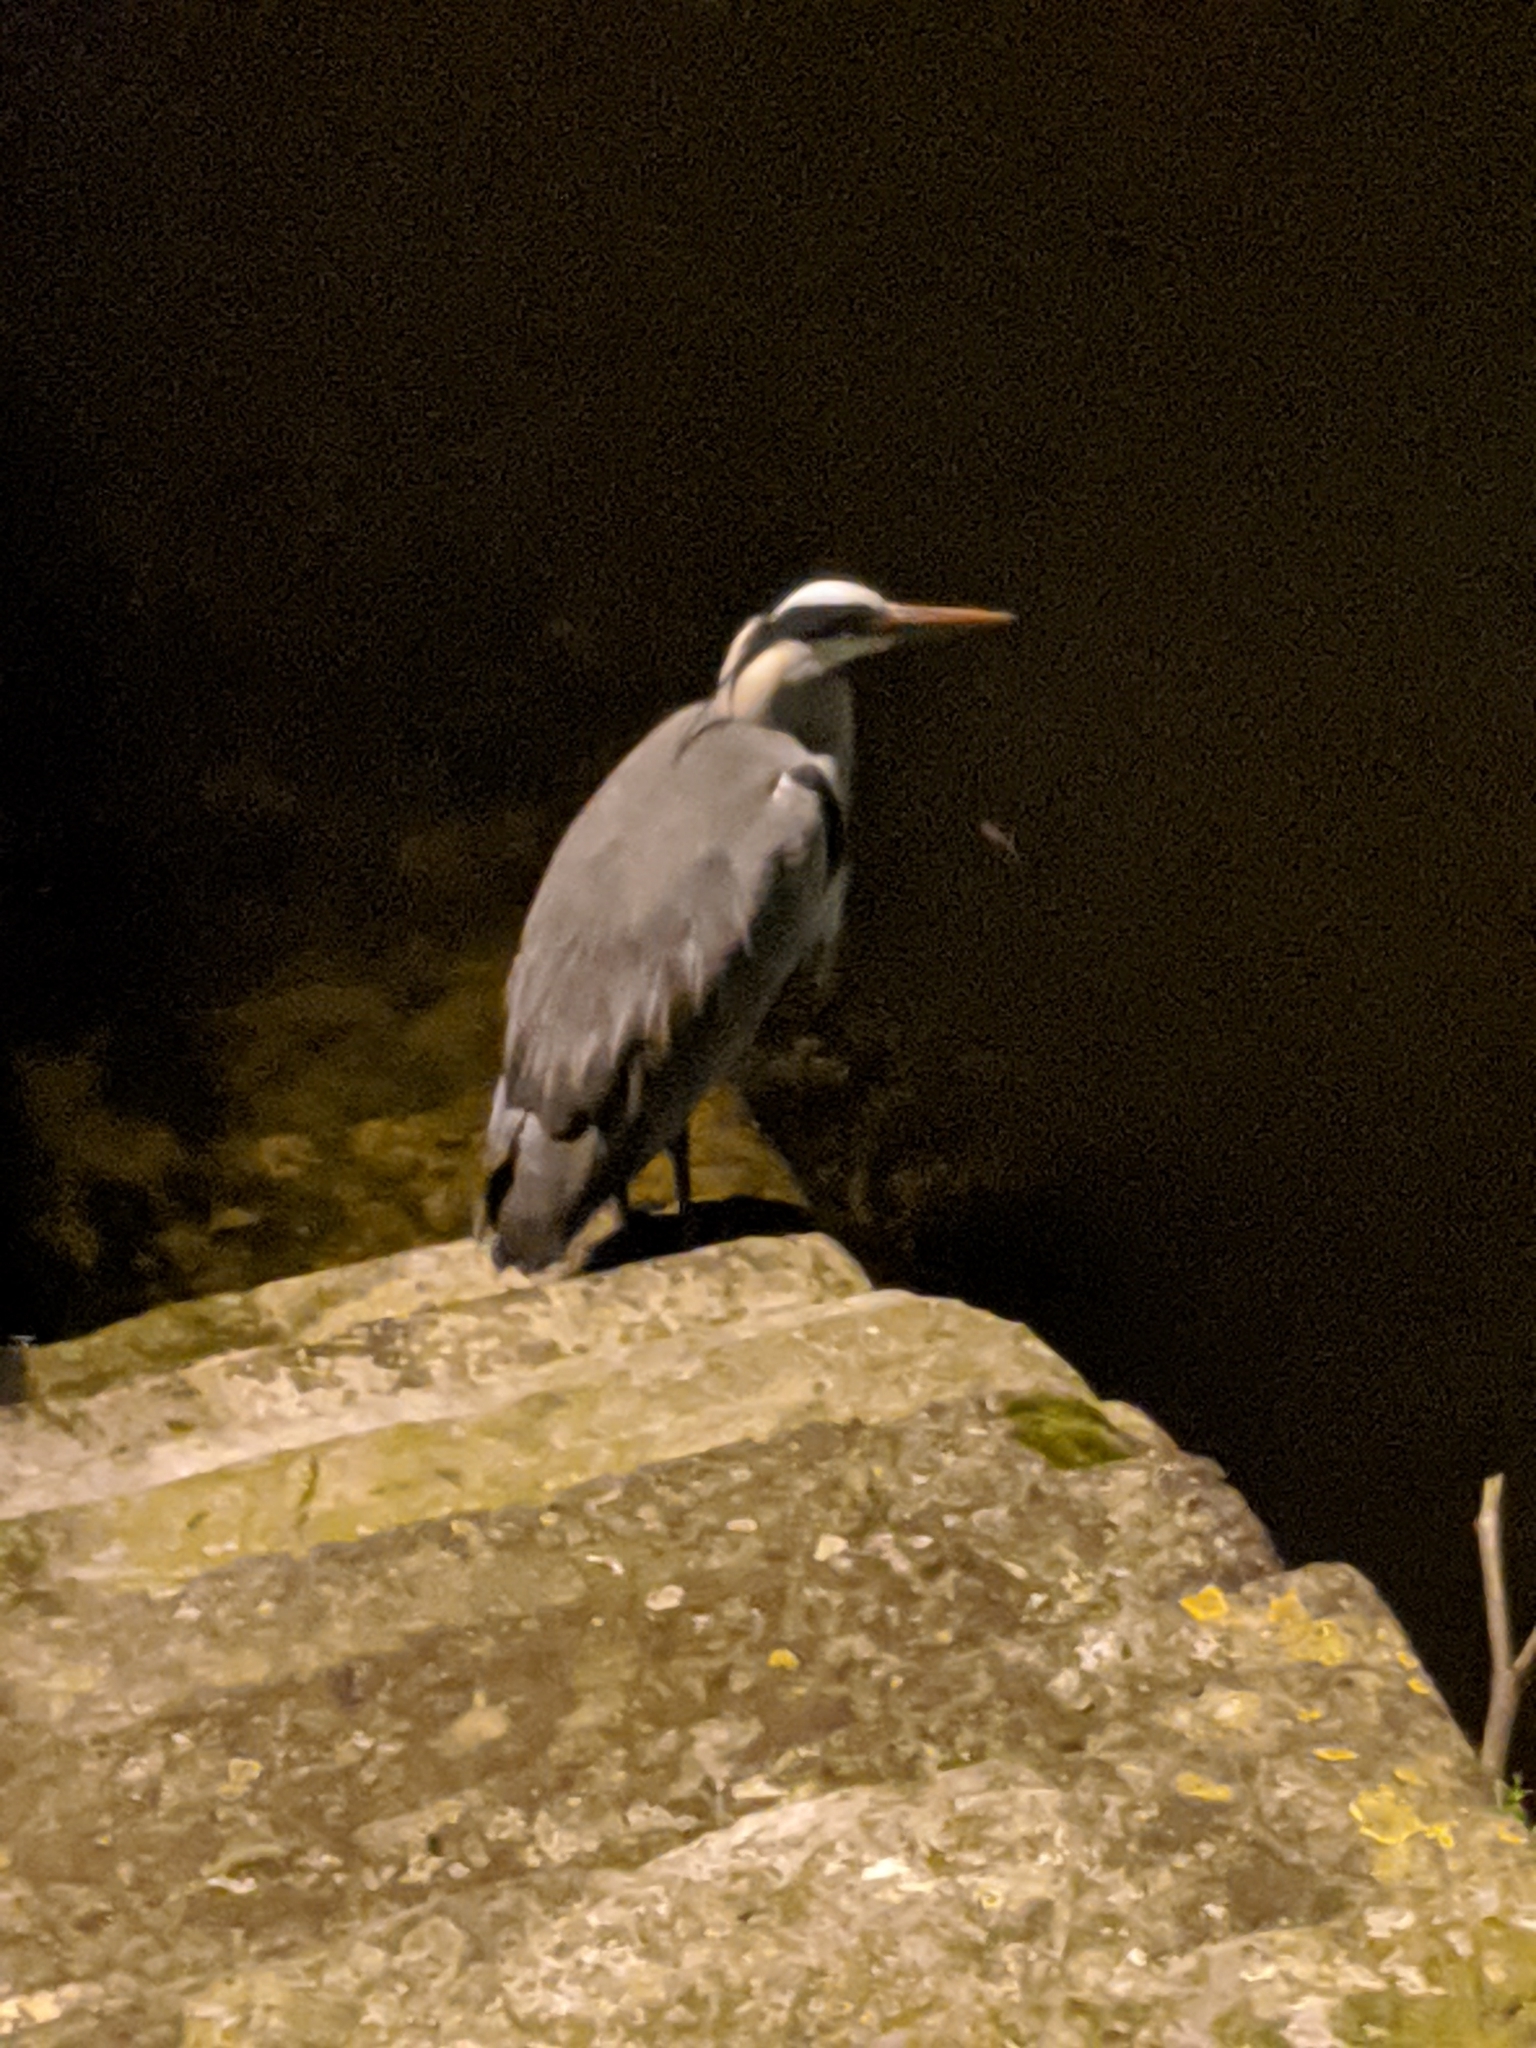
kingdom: Animalia
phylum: Chordata
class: Aves
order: Pelecaniformes
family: Ardeidae
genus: Ardea
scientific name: Ardea cinerea
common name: Grey heron
